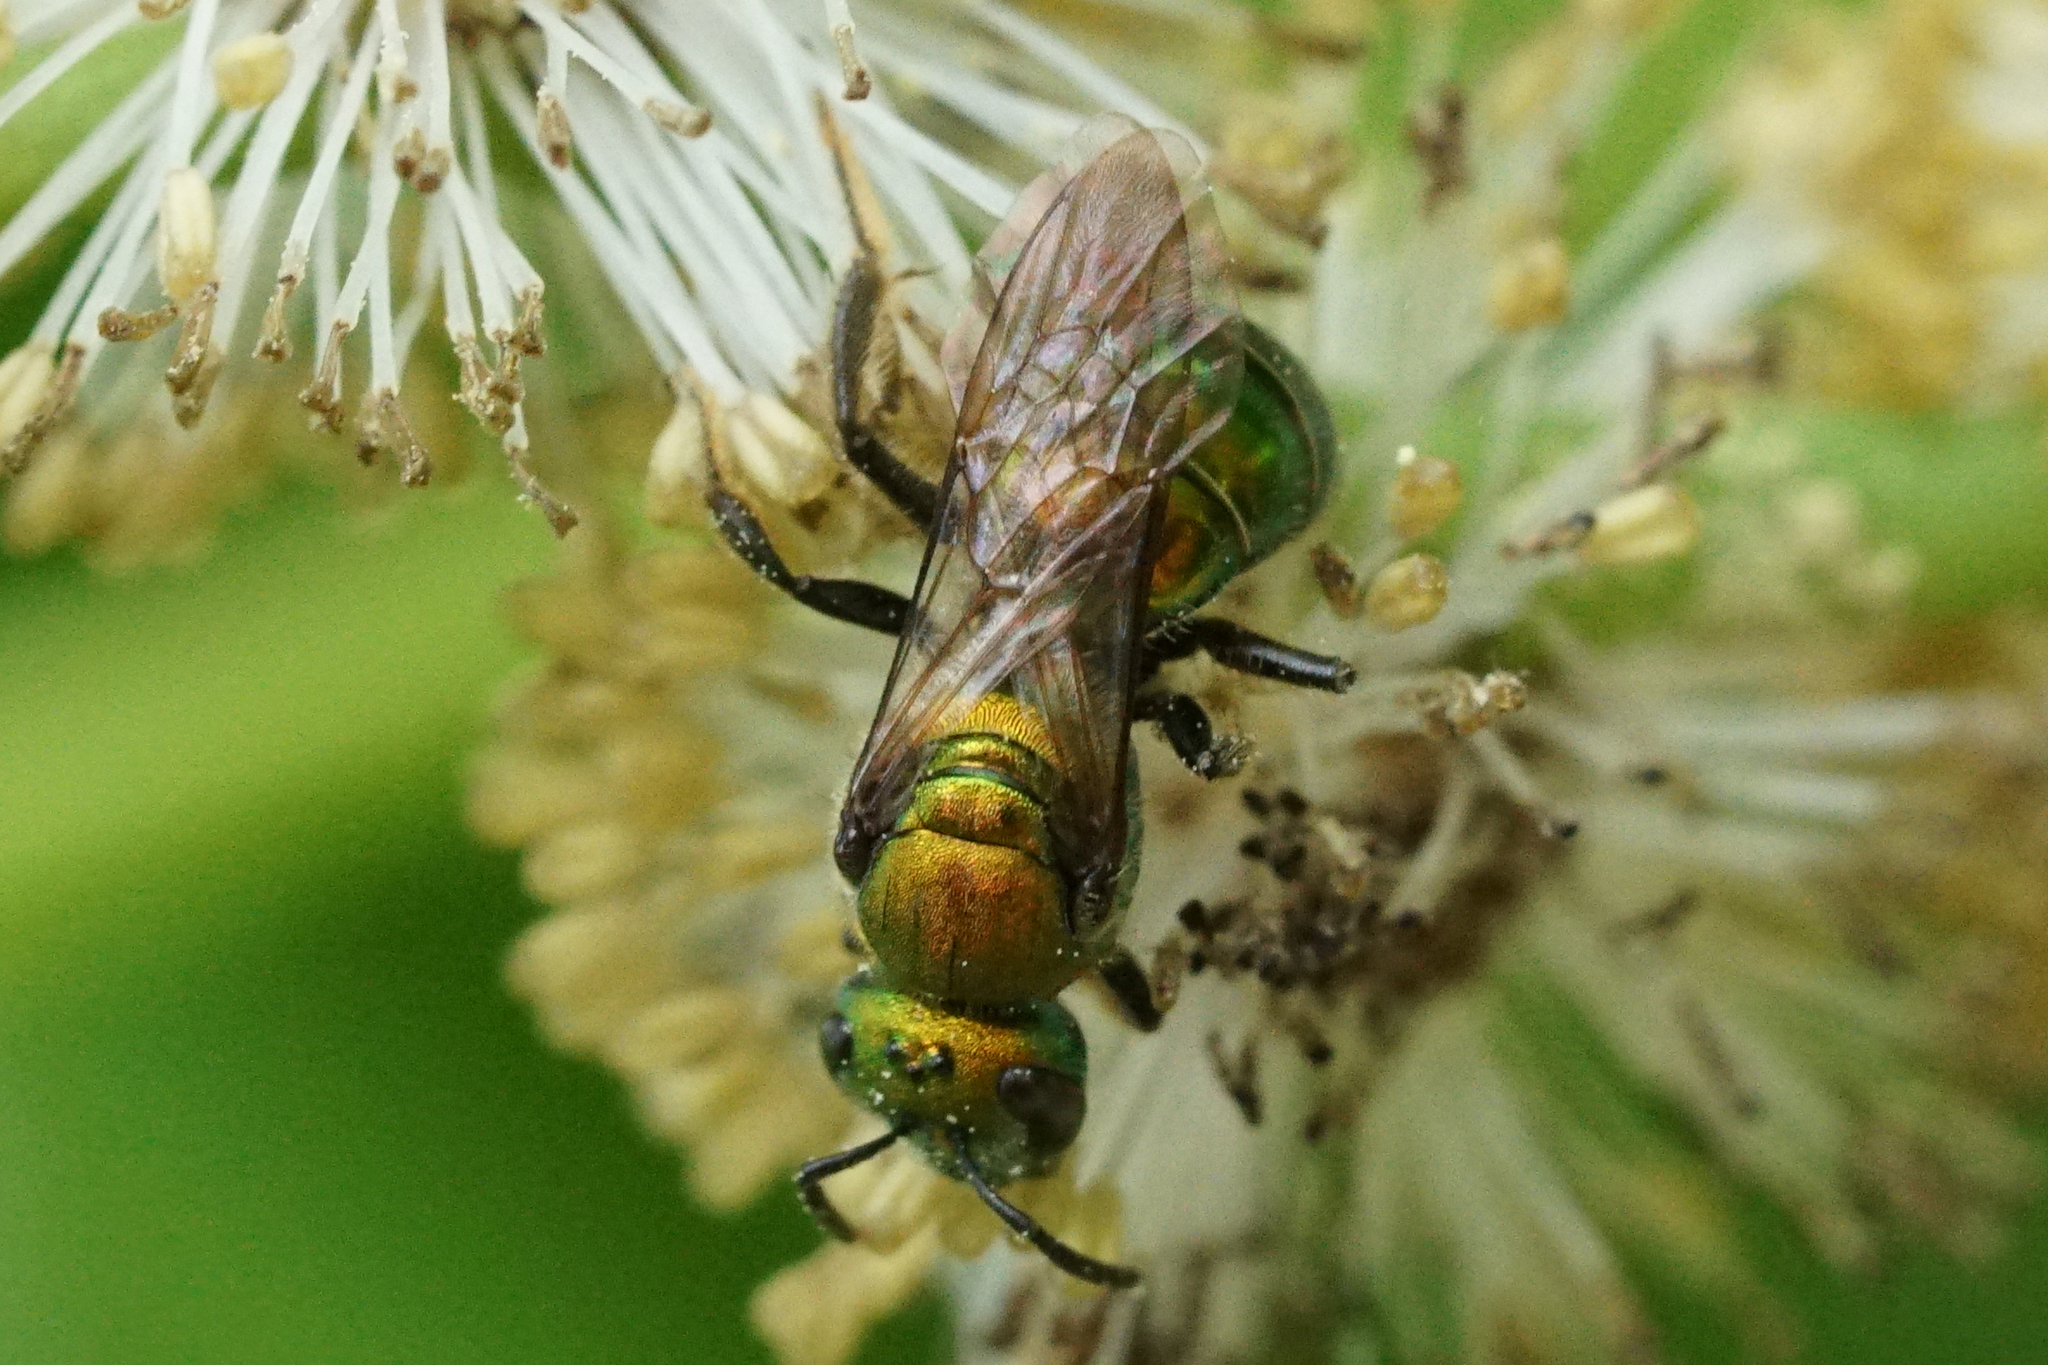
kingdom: Animalia
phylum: Arthropoda
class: Insecta
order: Hymenoptera
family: Halictidae
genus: Augochlora
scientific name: Augochlora pura
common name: Pure green sweat bee
